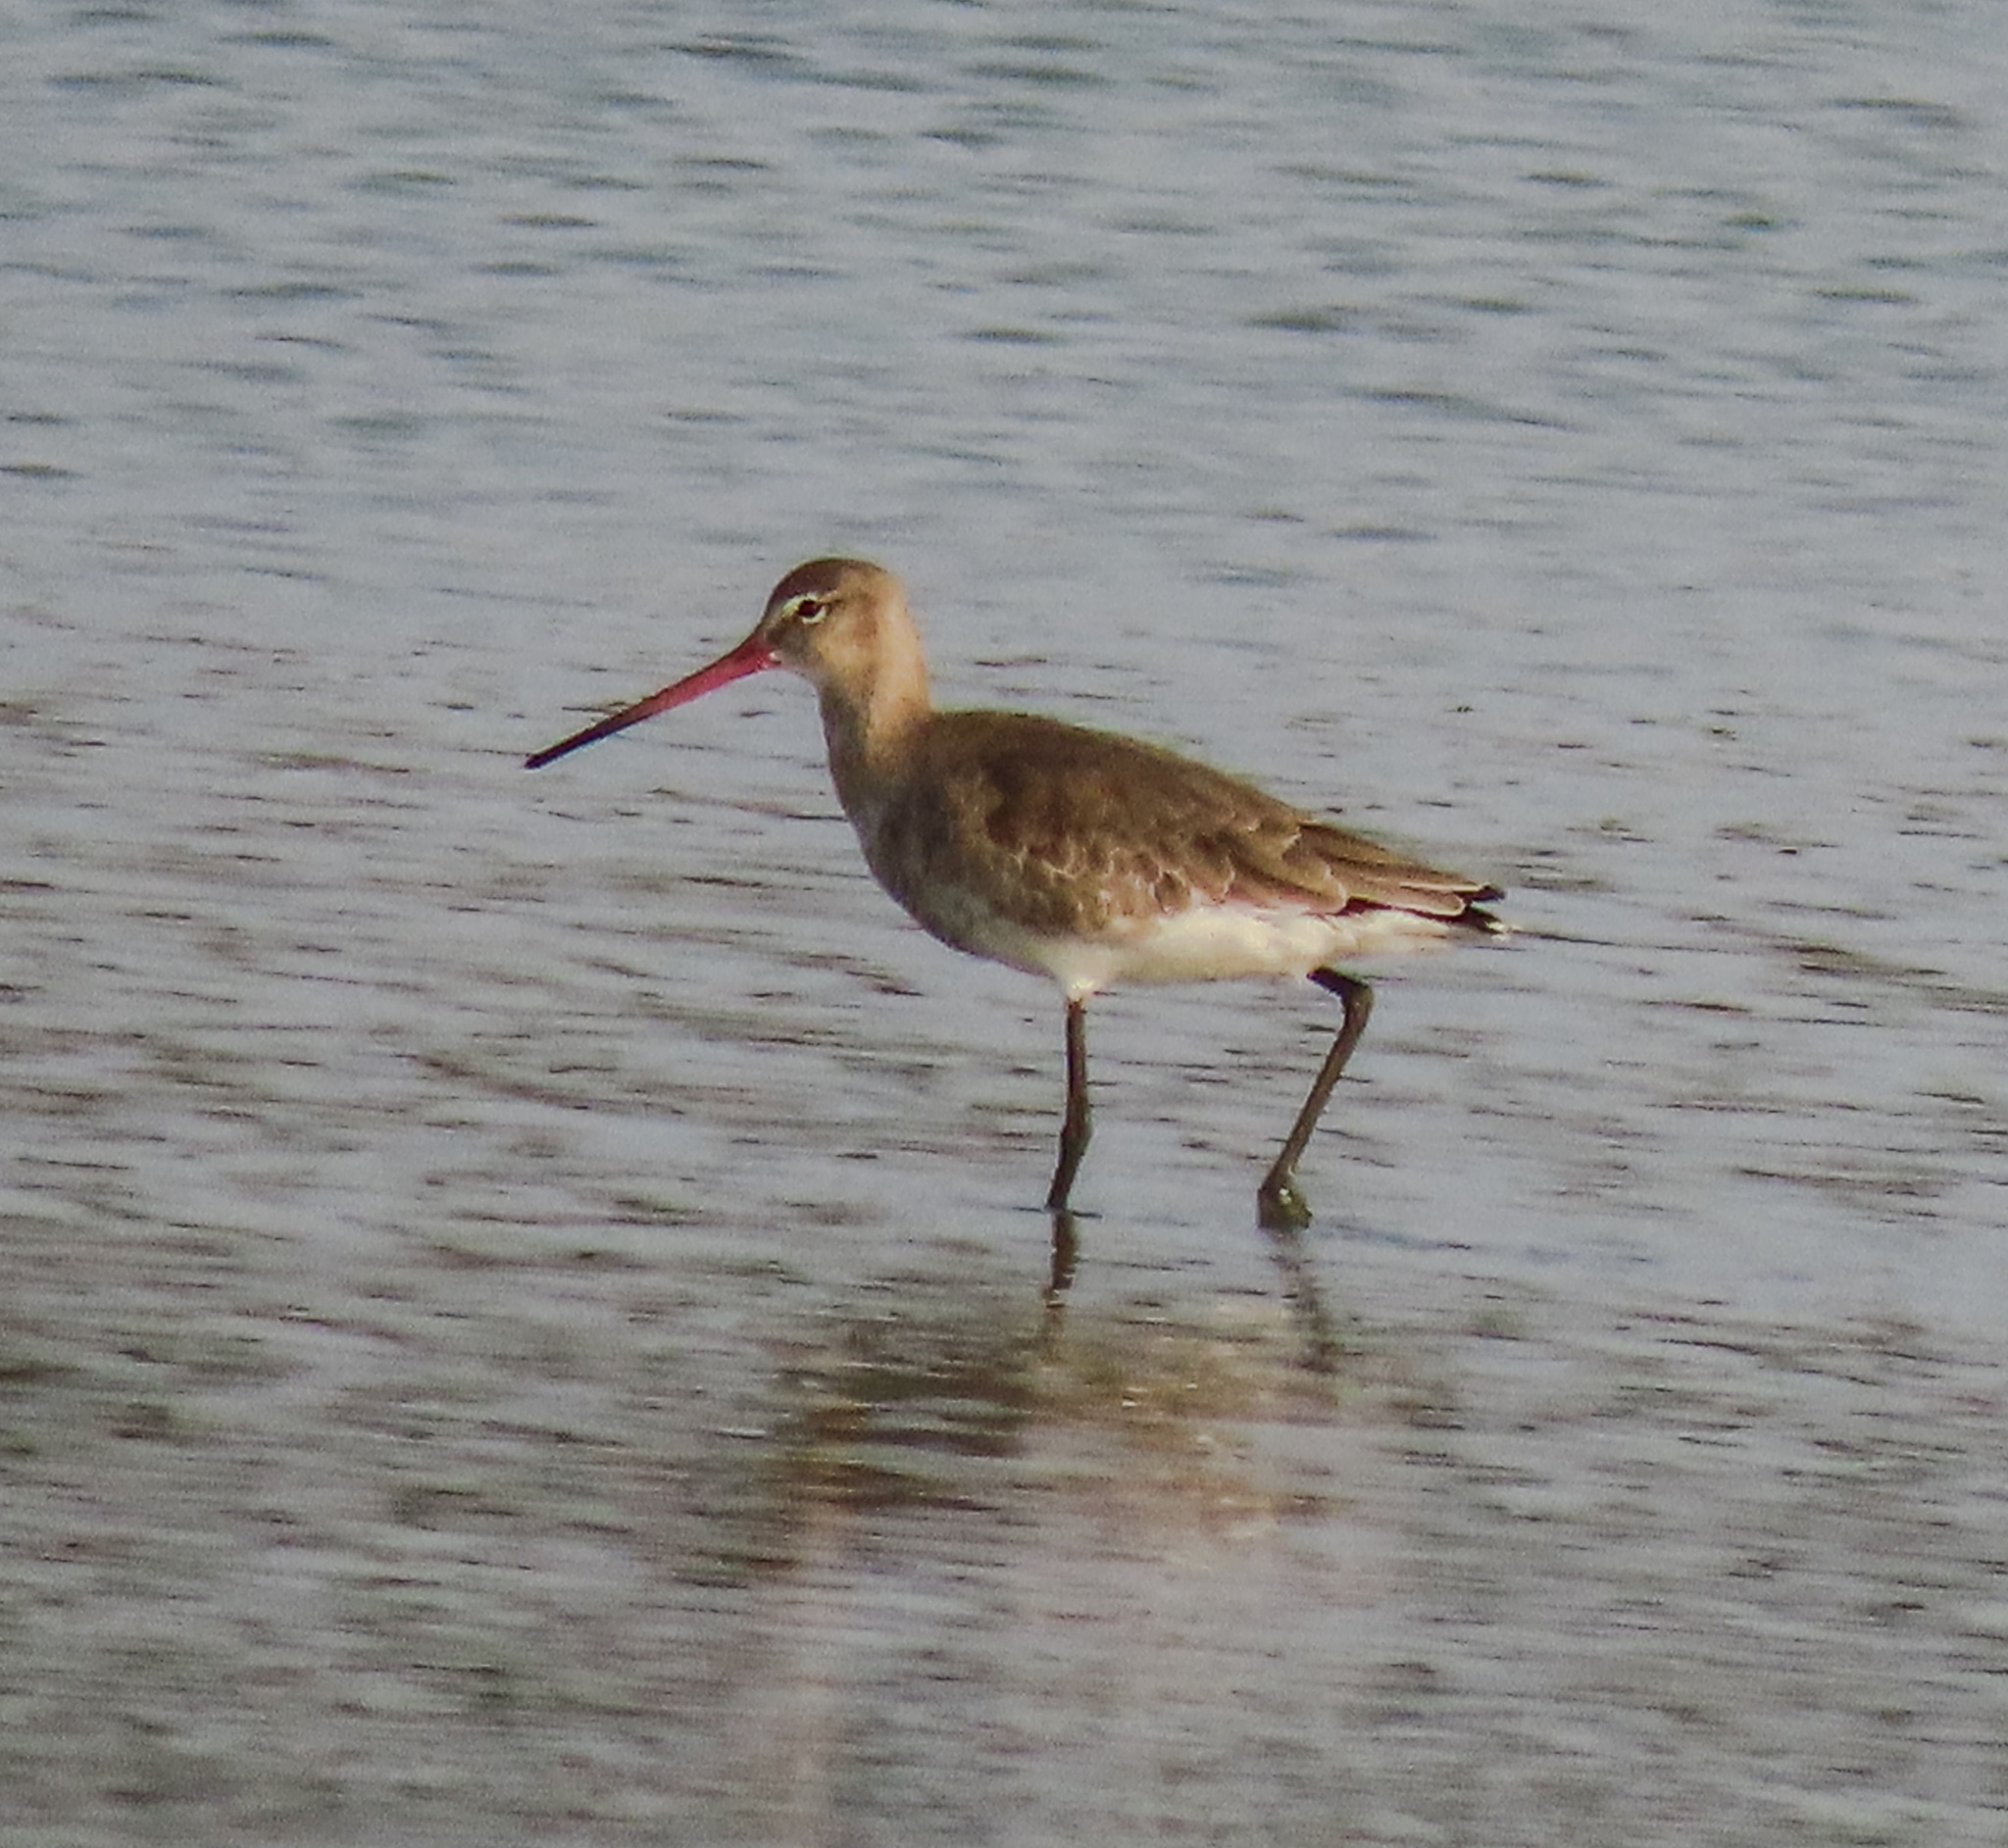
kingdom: Animalia
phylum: Chordata
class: Aves
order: Charadriiformes
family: Scolopacidae
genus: Limosa
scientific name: Limosa limosa
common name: Black-tailed godwit
